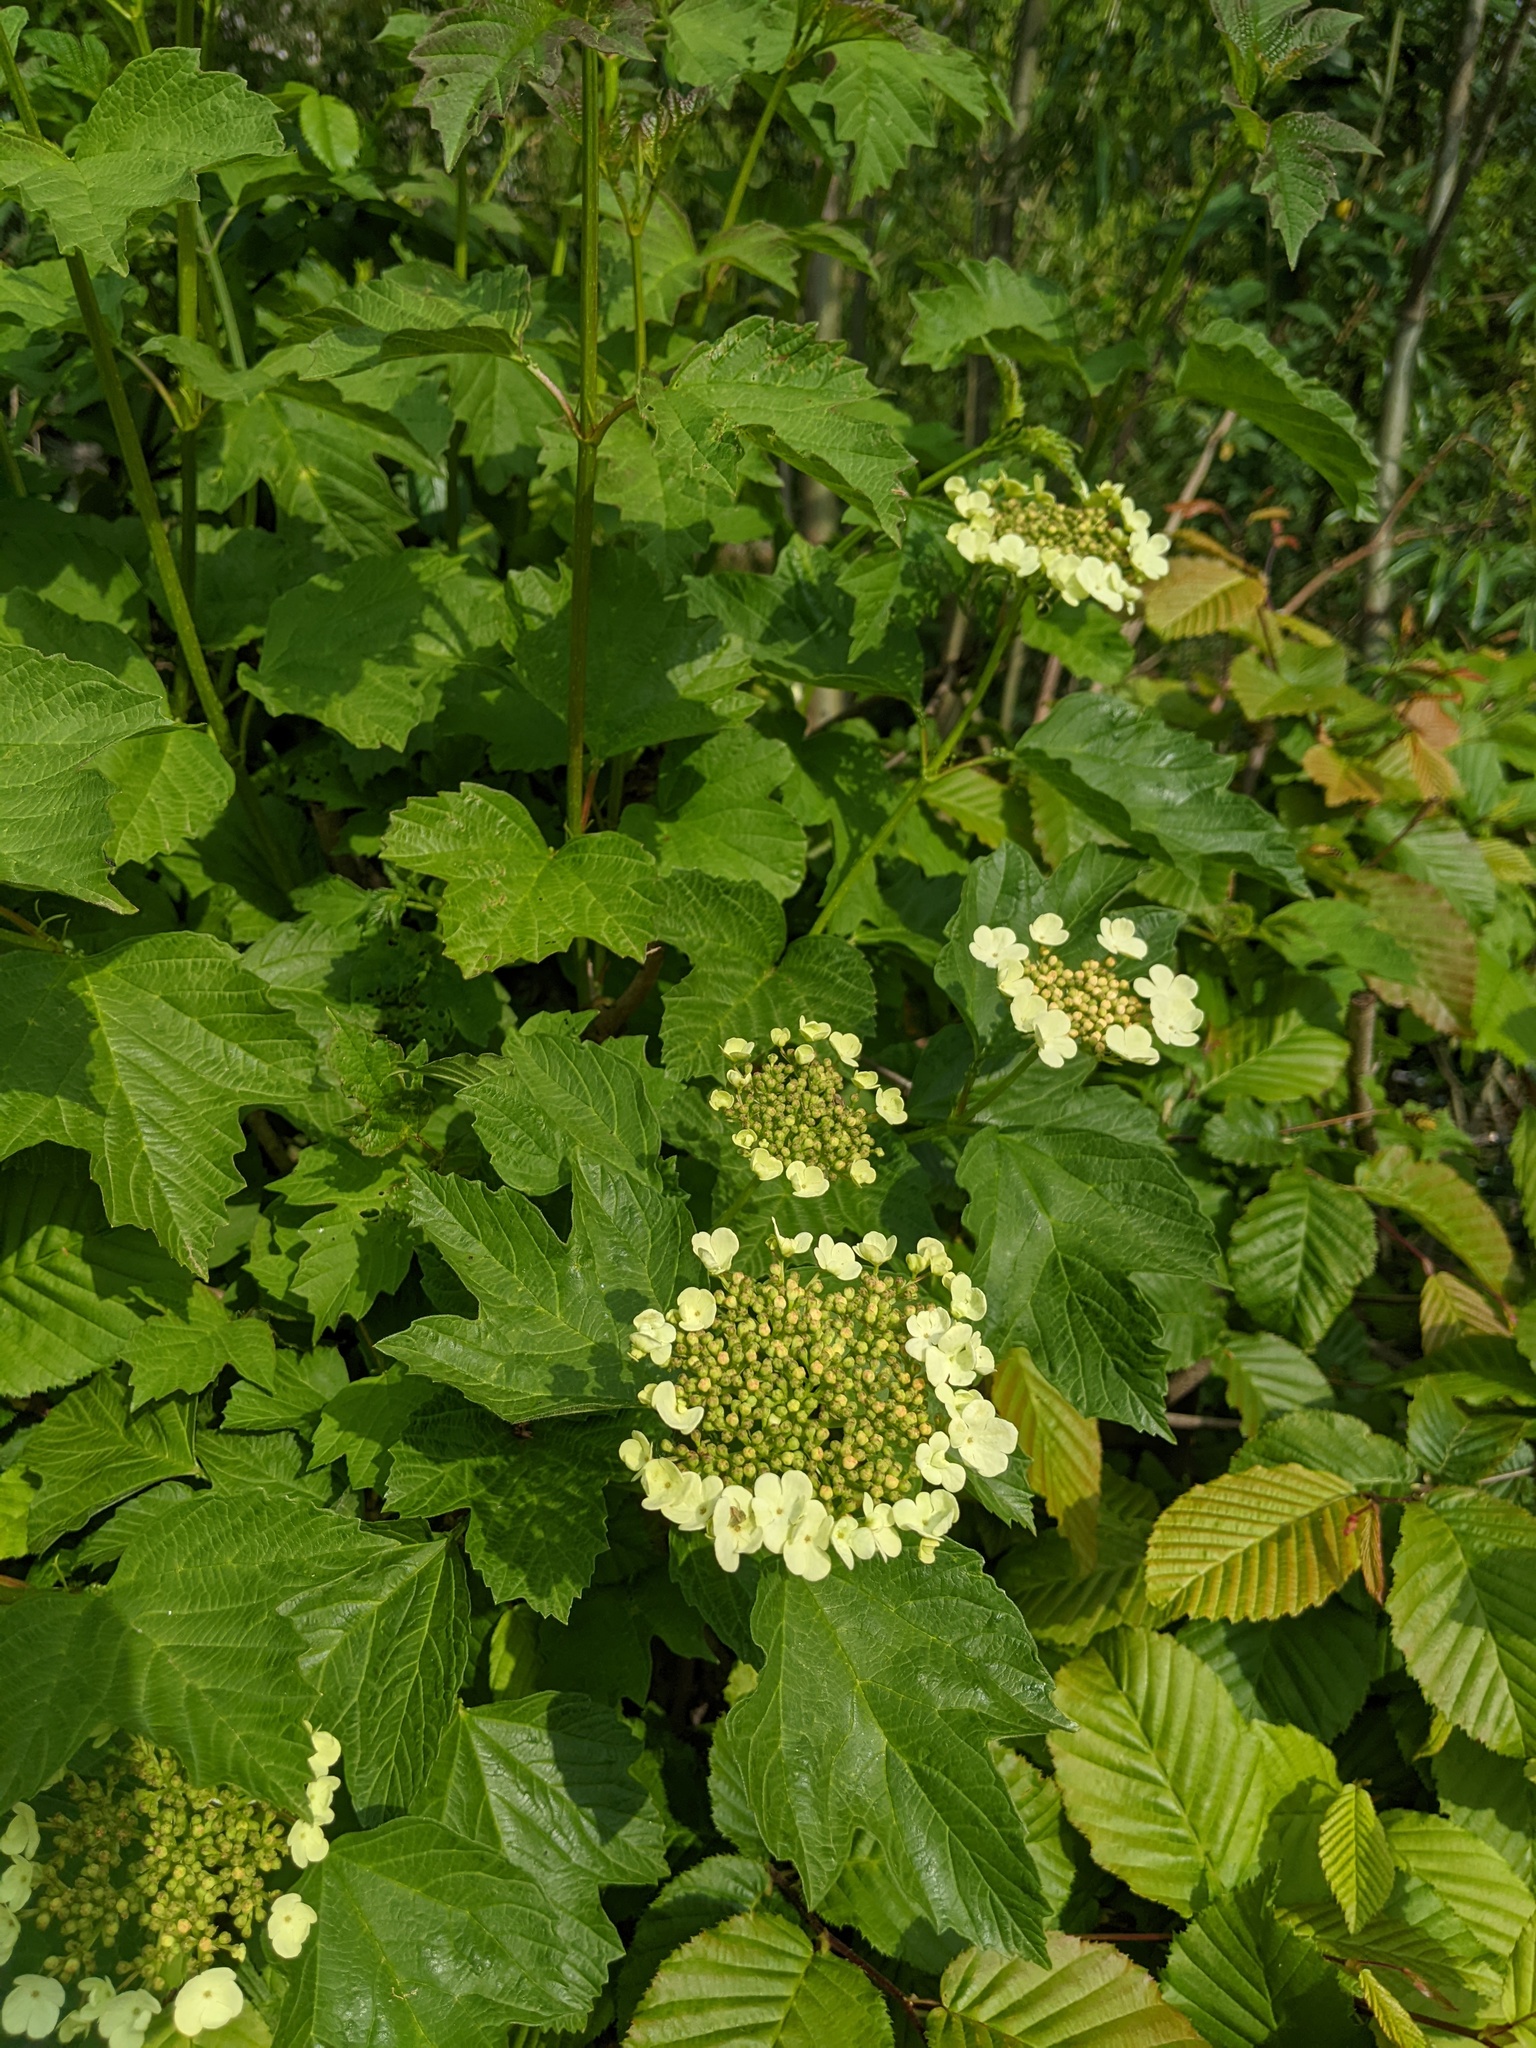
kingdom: Plantae
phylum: Tracheophyta
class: Magnoliopsida
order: Dipsacales
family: Viburnaceae
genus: Viburnum
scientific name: Viburnum opulus
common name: Guelder-rose
